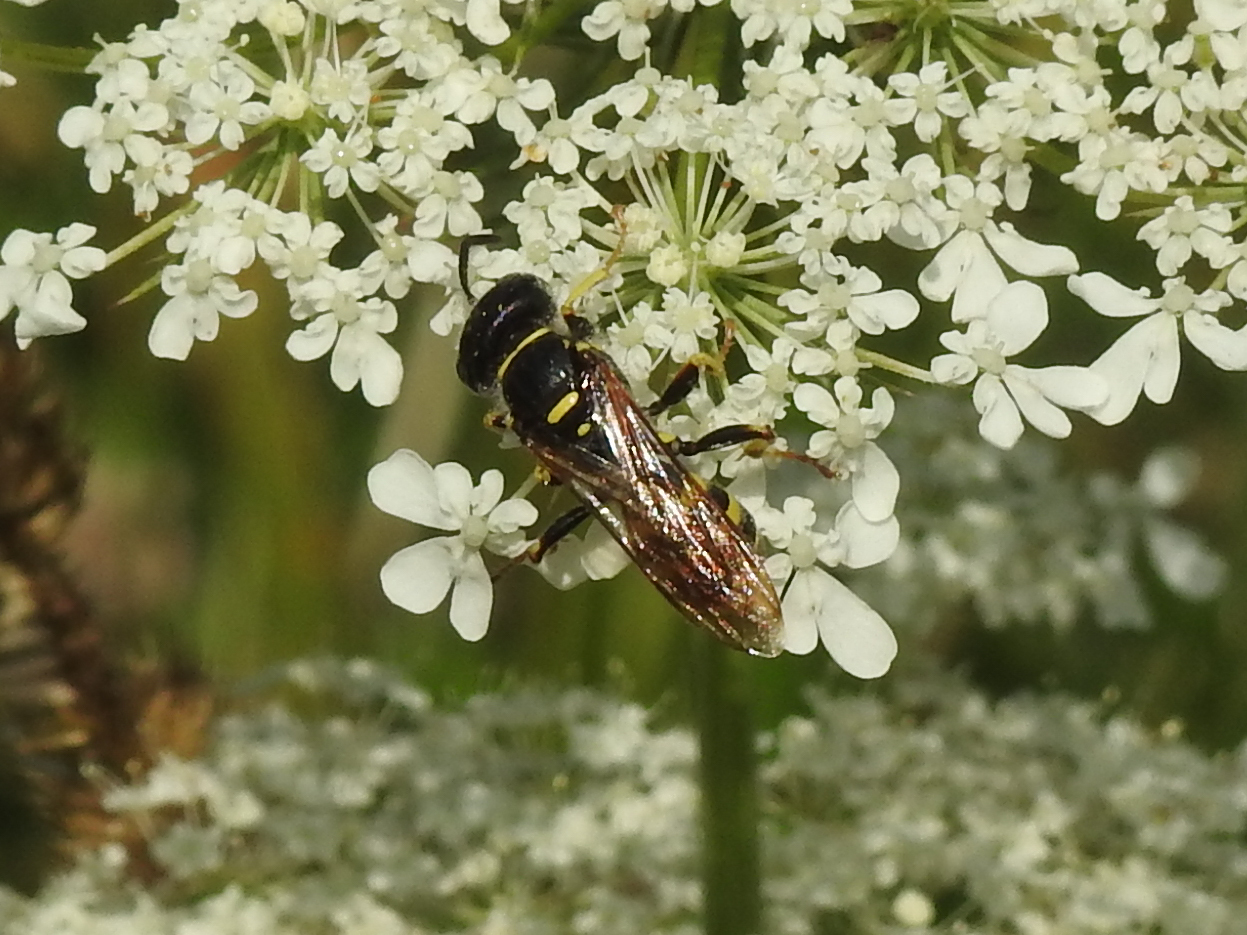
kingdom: Animalia
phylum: Arthropoda
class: Insecta
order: Hymenoptera
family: Crabronidae
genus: Aphilanthops
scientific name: Aphilanthops frigidus
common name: Queen ant kidnapper
